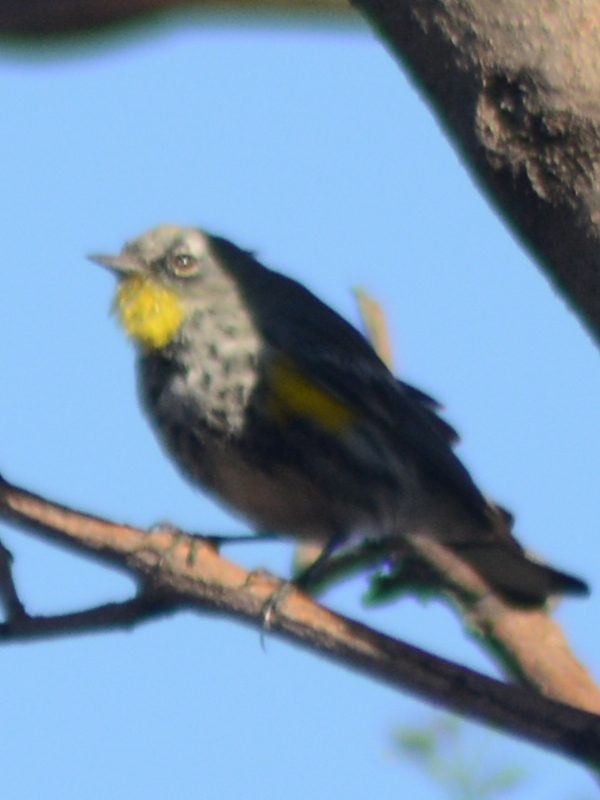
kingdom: Animalia
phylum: Chordata
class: Aves
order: Passeriformes
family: Parulidae
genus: Setophaga
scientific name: Setophaga auduboni
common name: Audubon's warbler
